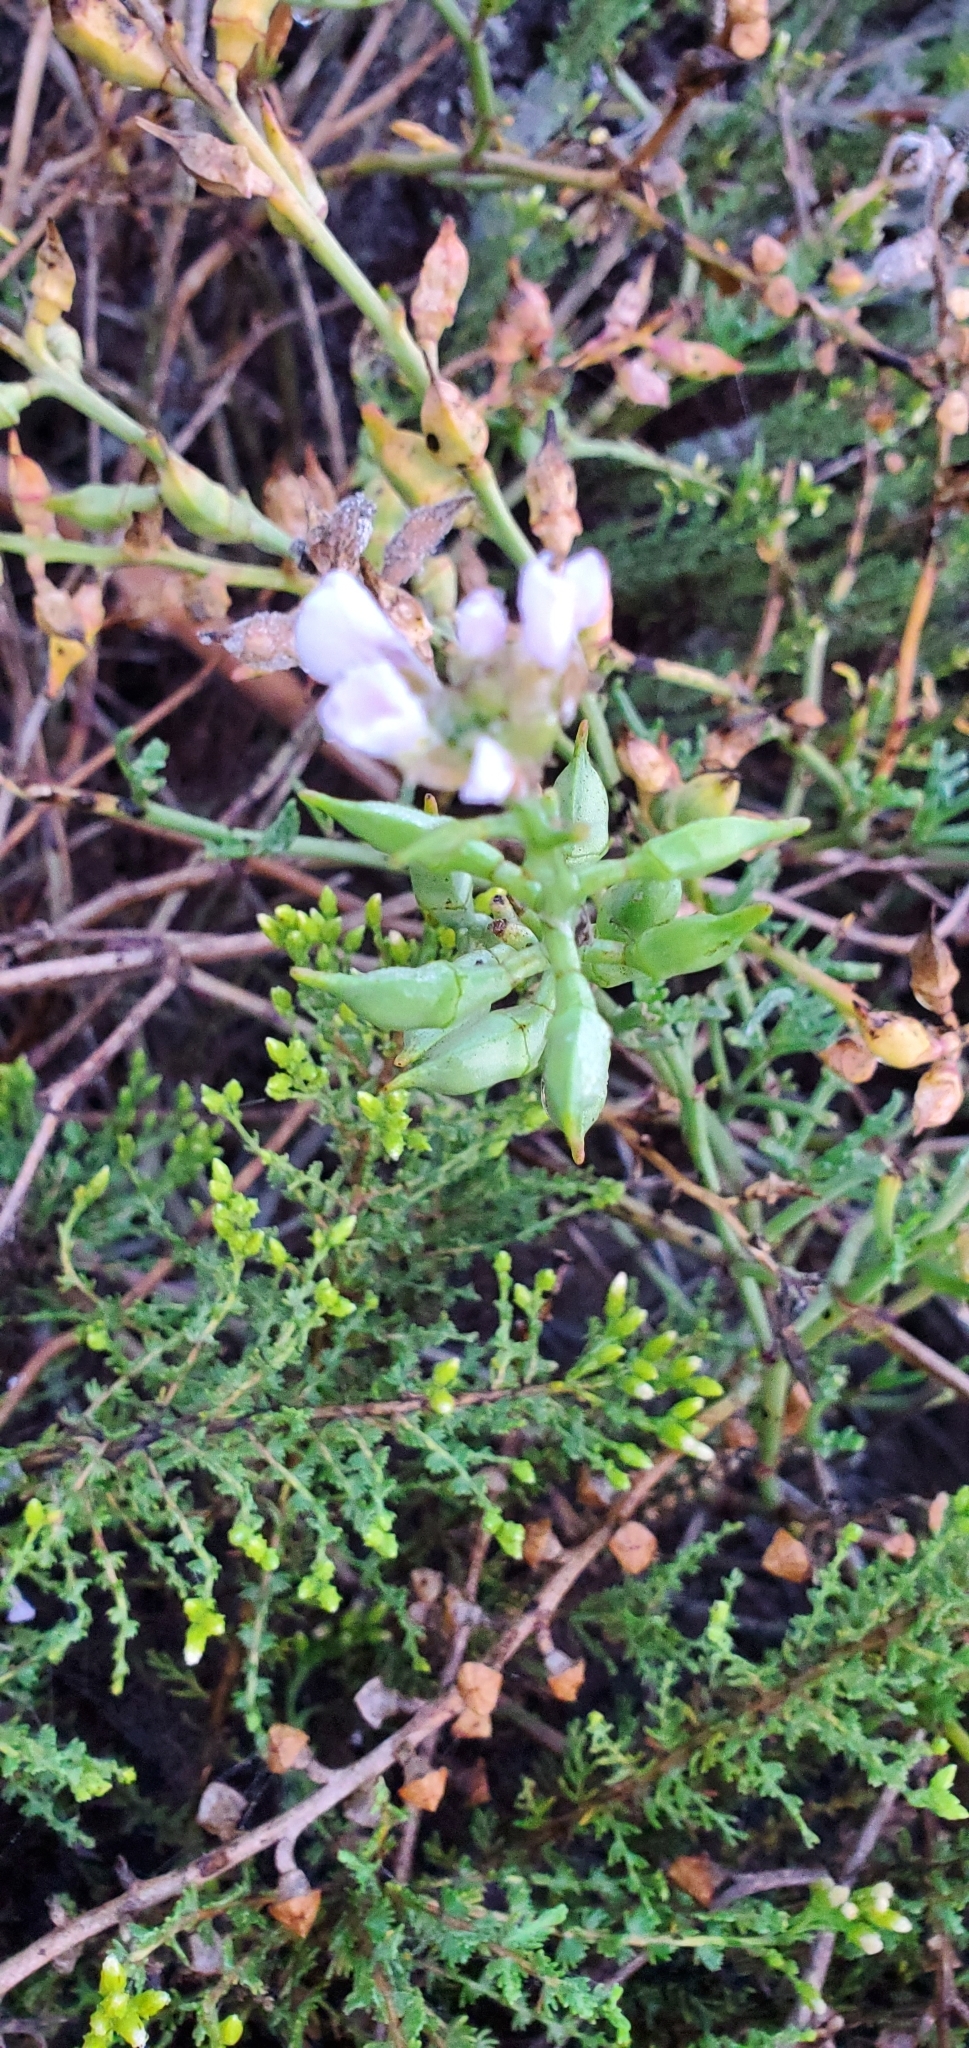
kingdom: Plantae
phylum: Tracheophyta
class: Magnoliopsida
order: Brassicales
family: Brassicaceae
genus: Cakile
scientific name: Cakile maritima
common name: Sea rocket
